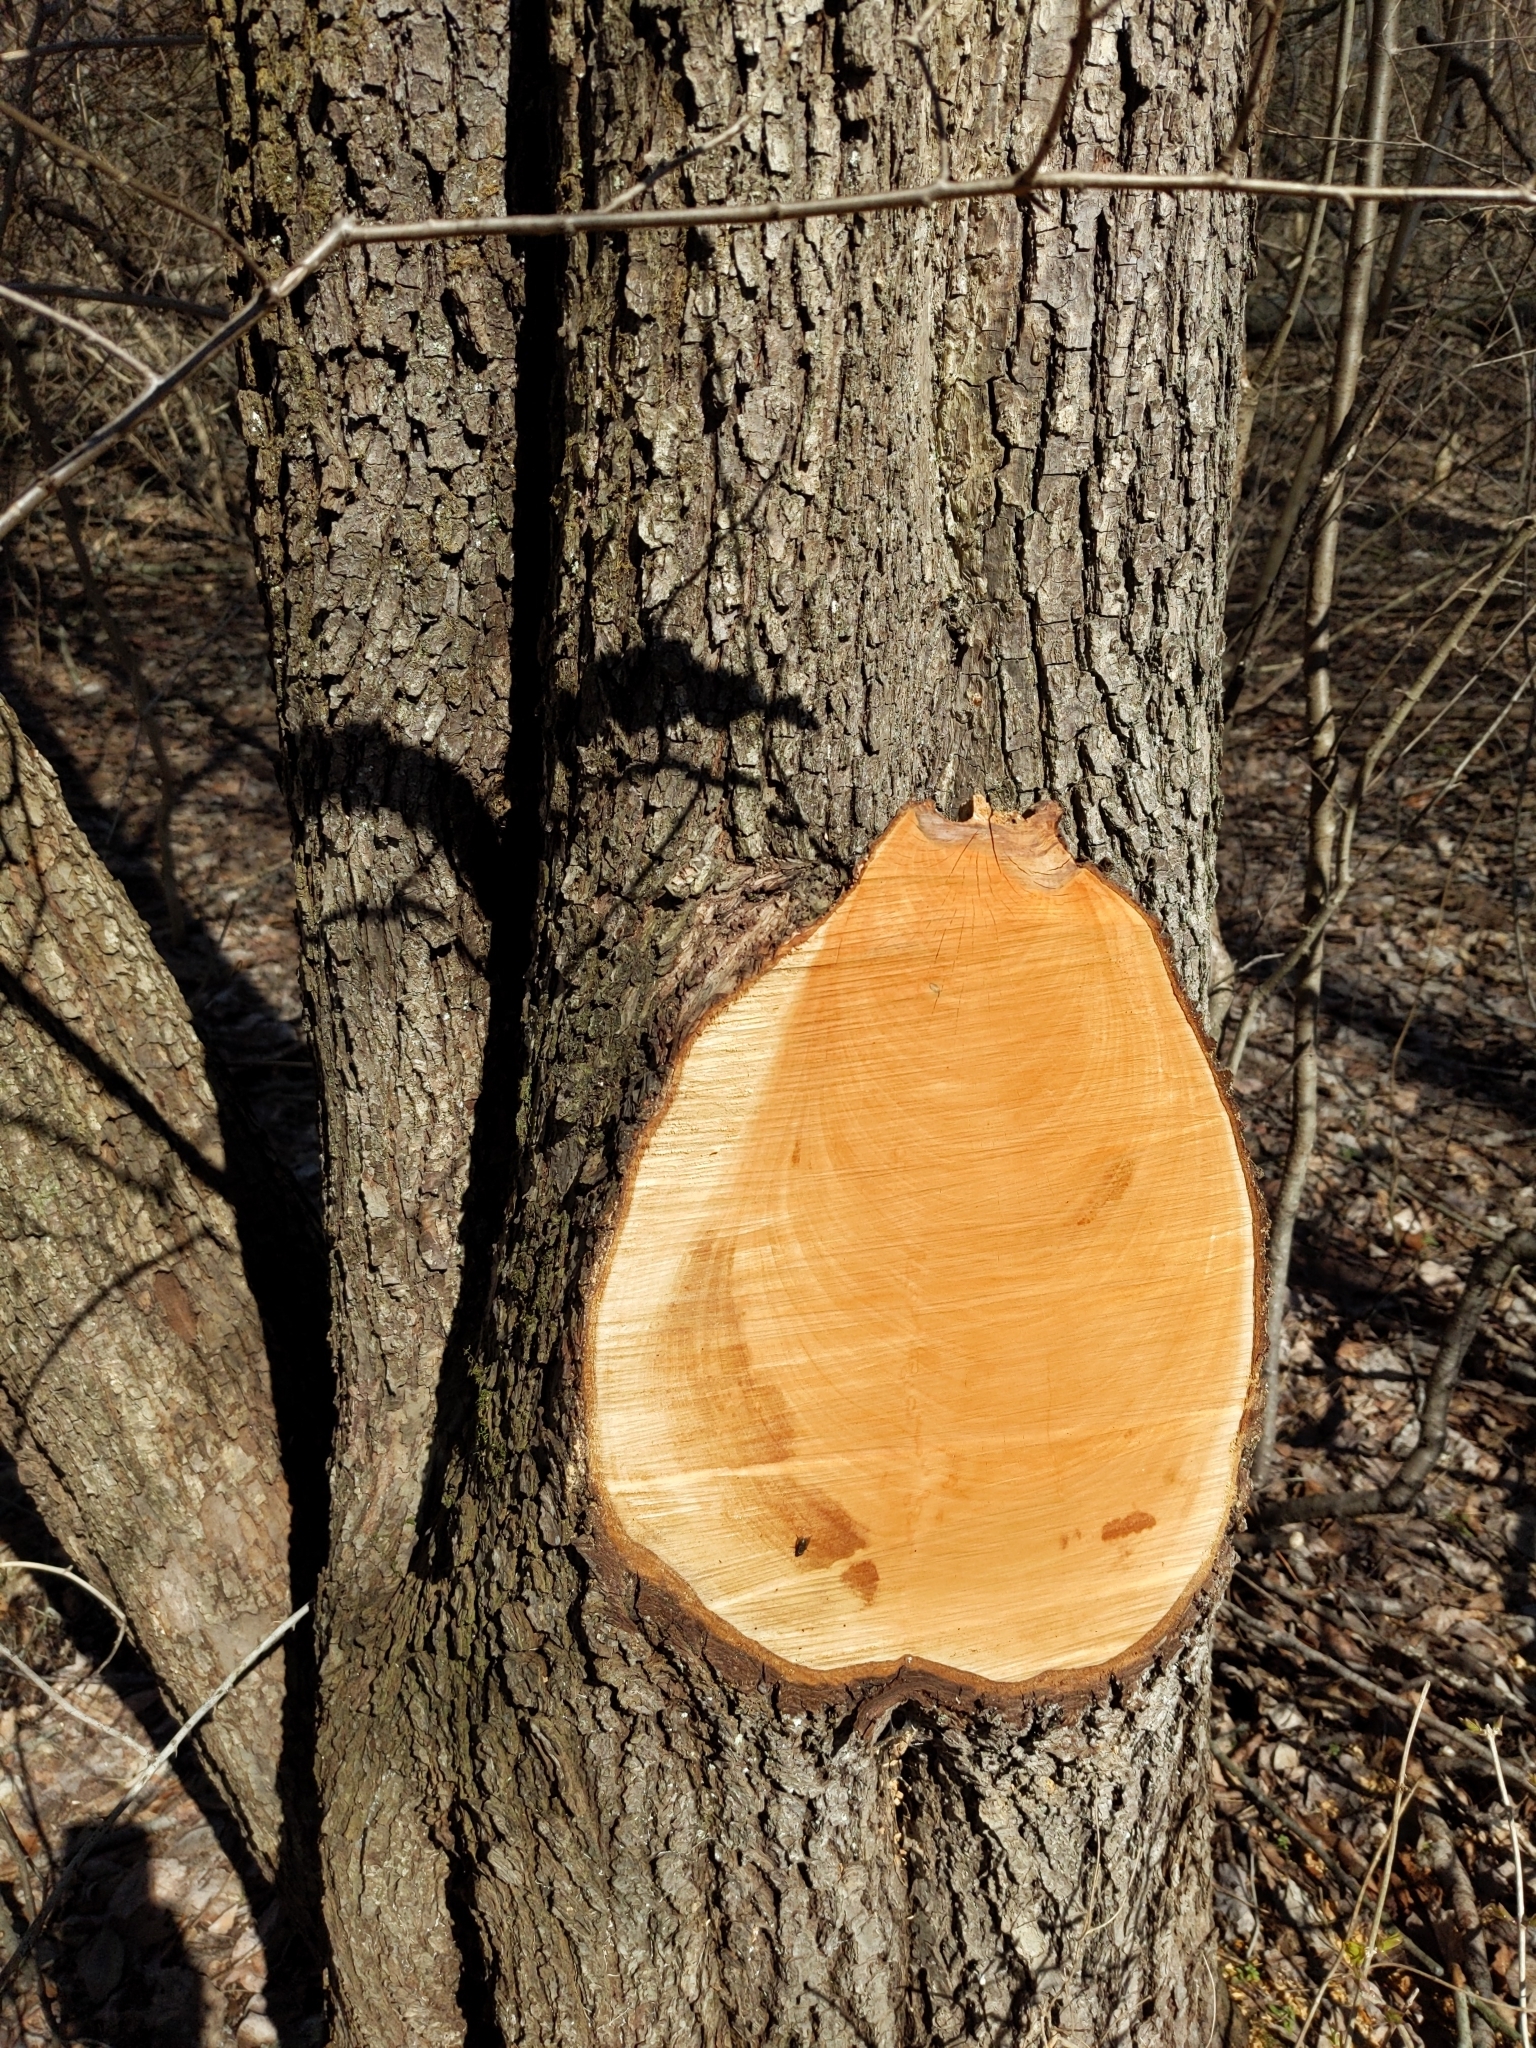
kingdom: Plantae
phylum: Tracheophyta
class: Magnoliopsida
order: Rosales
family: Rosaceae
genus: Prunus
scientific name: Prunus serotina
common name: Black cherry
